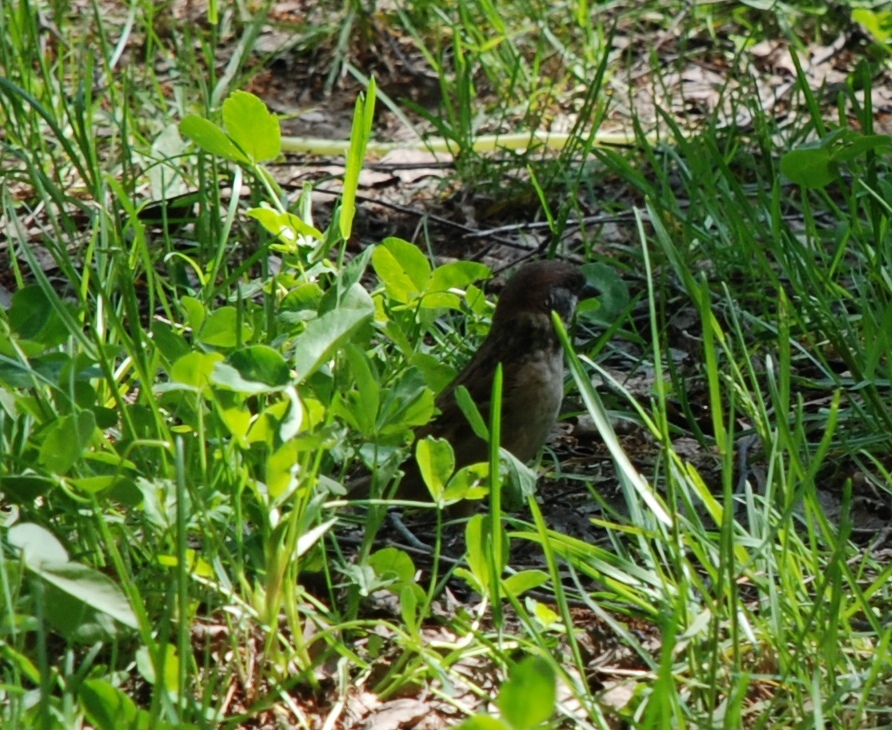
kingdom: Animalia
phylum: Chordata
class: Aves
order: Passeriformes
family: Passeridae
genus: Passer
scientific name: Passer montanus
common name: Eurasian tree sparrow
